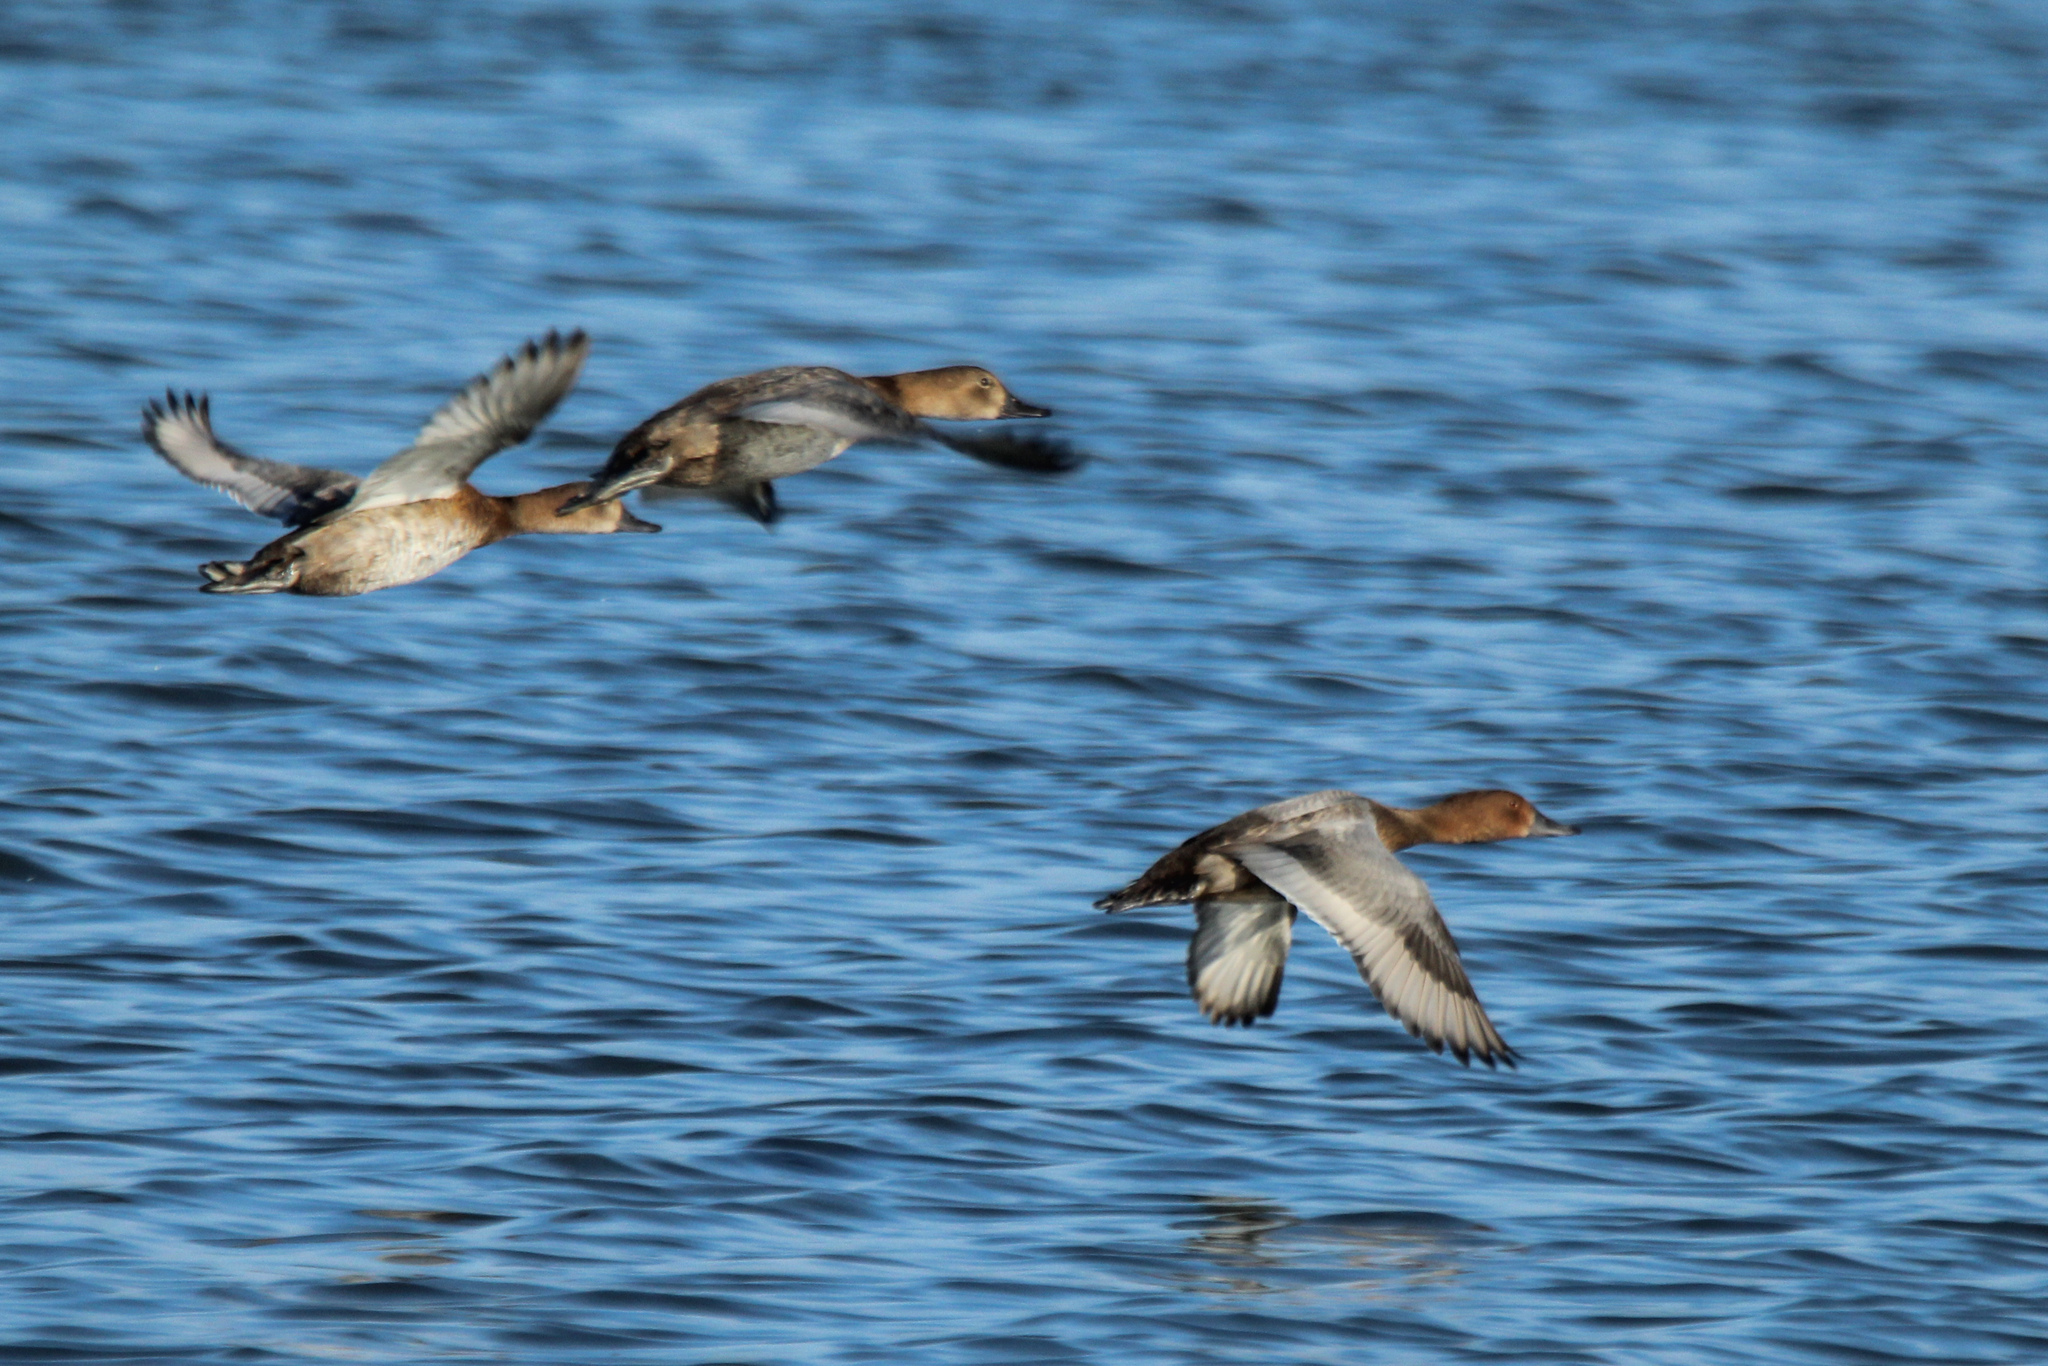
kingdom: Animalia
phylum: Chordata
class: Aves
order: Anseriformes
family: Anatidae
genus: Aythya
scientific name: Aythya ferina
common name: Common pochard
